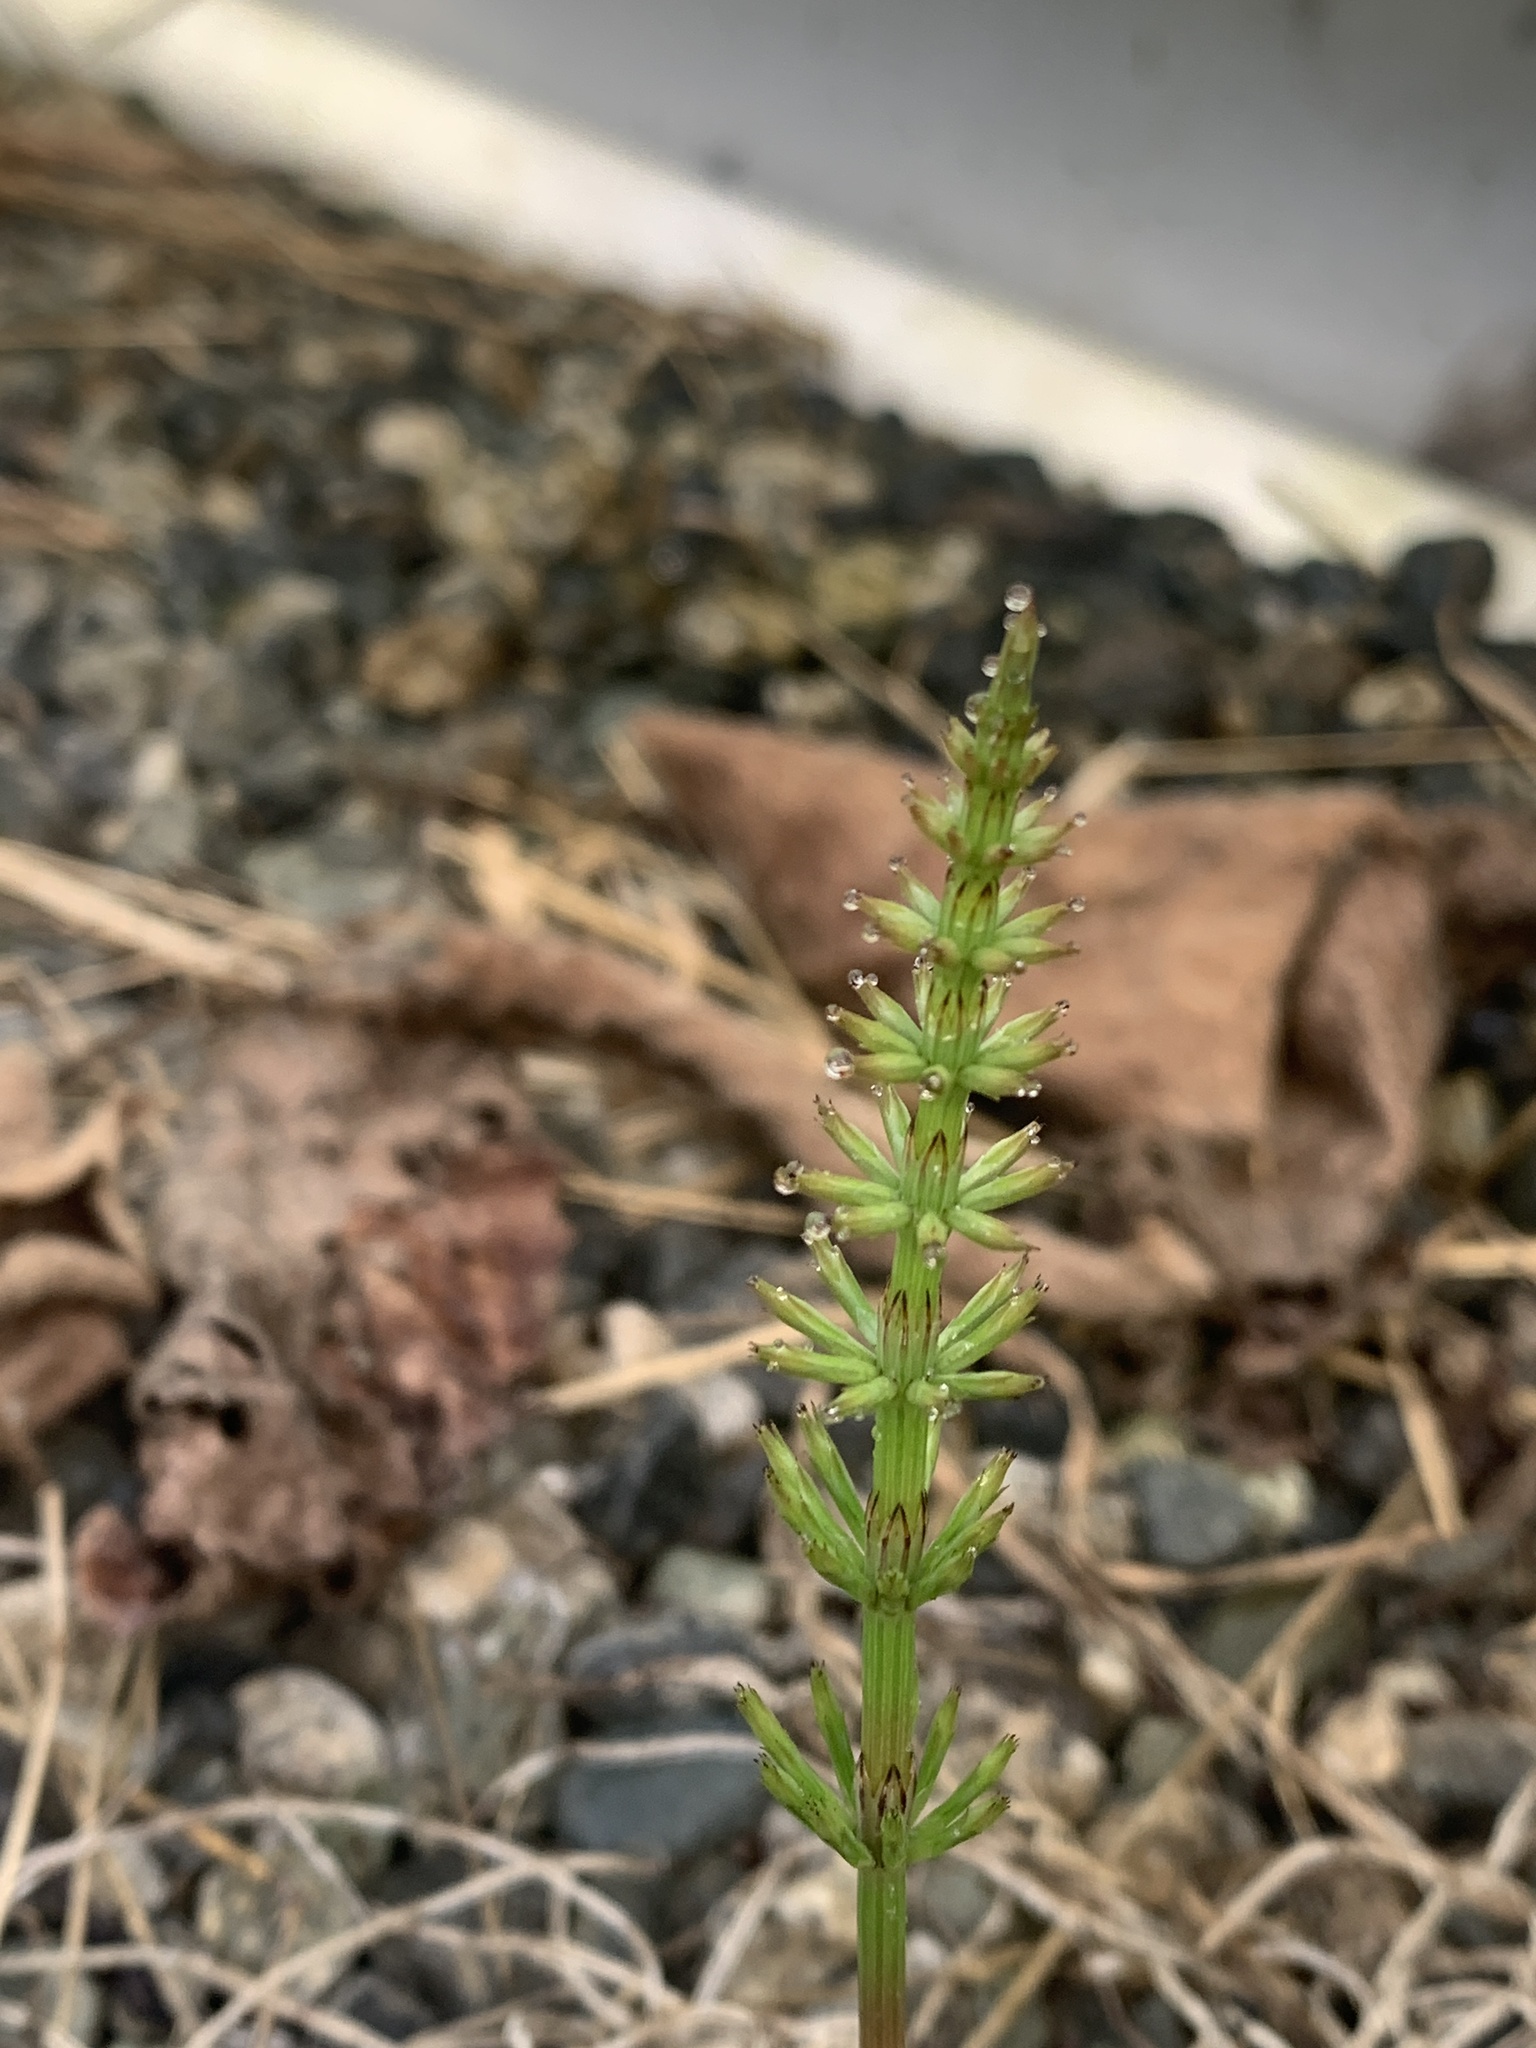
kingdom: Plantae
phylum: Tracheophyta
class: Polypodiopsida
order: Equisetales
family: Equisetaceae
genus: Equisetum
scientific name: Equisetum arvense
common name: Field horsetail
